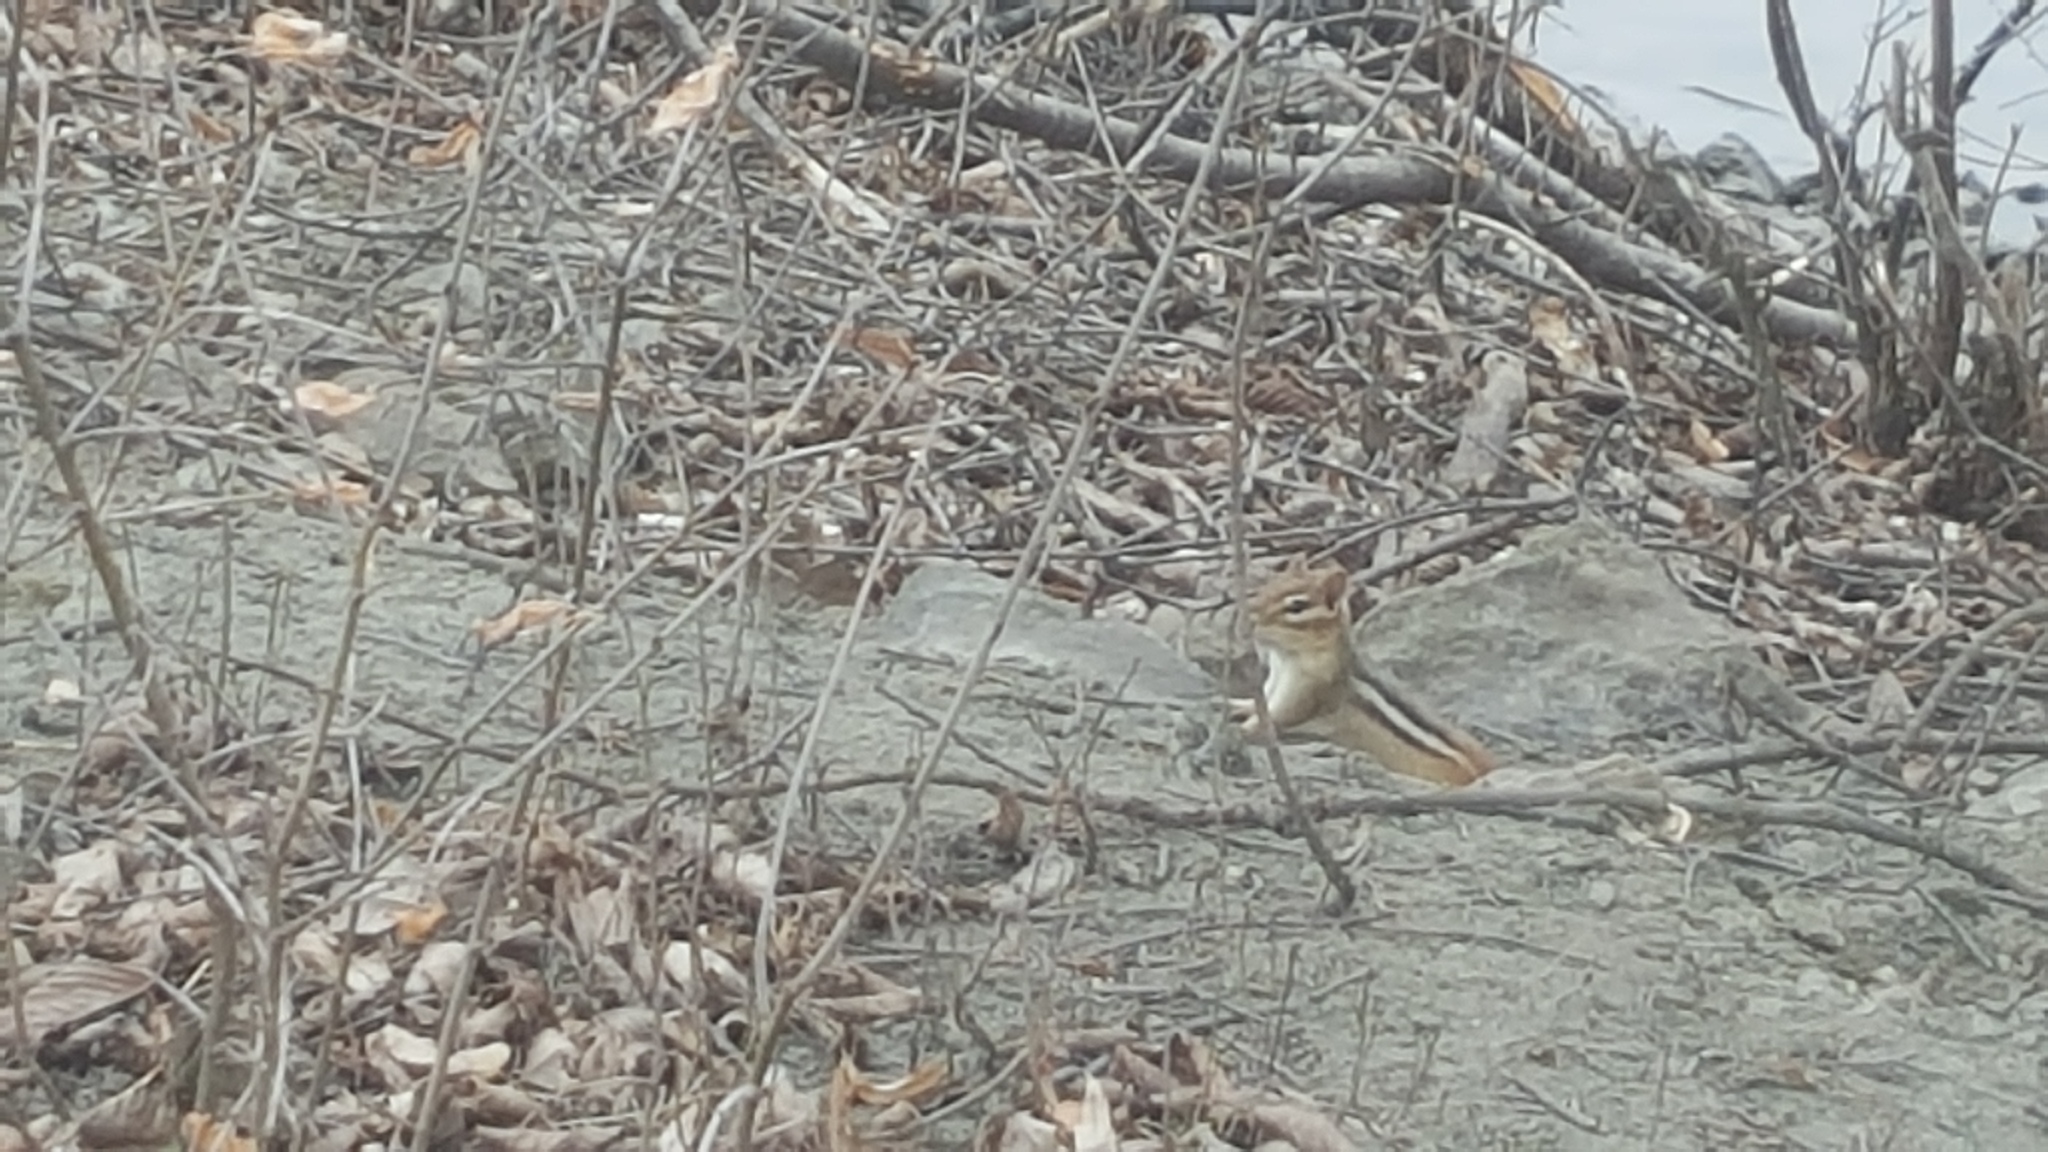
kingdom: Animalia
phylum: Chordata
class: Mammalia
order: Rodentia
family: Sciuridae
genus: Tamias
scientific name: Tamias striatus
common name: Eastern chipmunk
